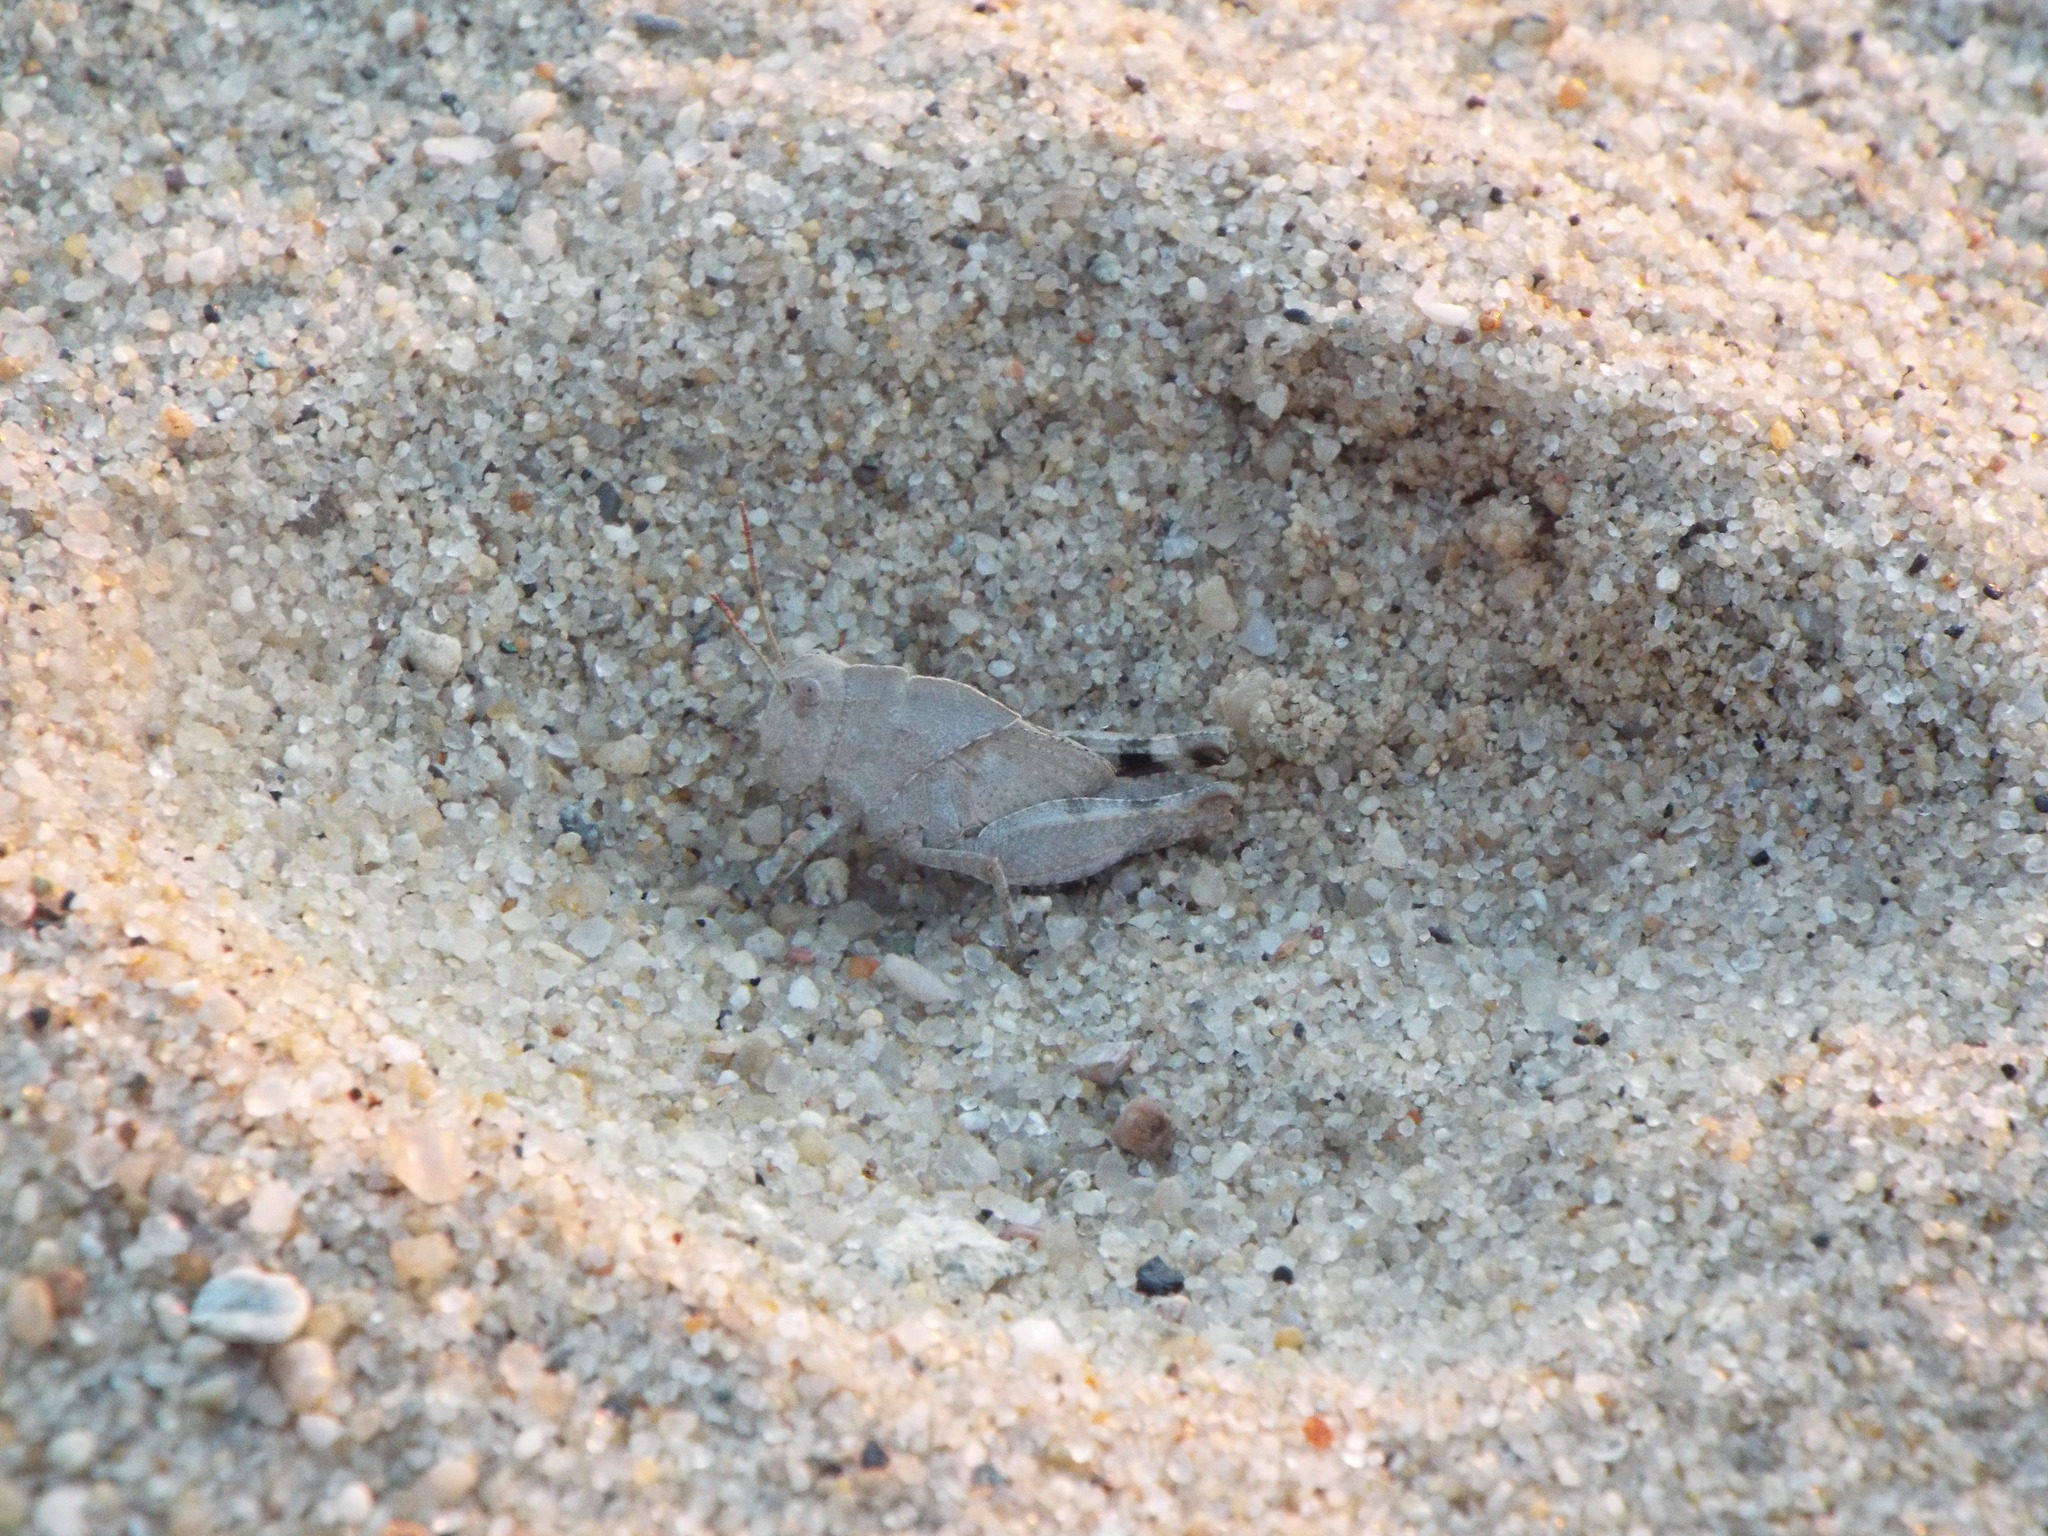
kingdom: Animalia
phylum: Arthropoda
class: Insecta
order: Orthoptera
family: Acrididae
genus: Dissosteira
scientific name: Dissosteira carolina
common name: Carolina grasshopper
